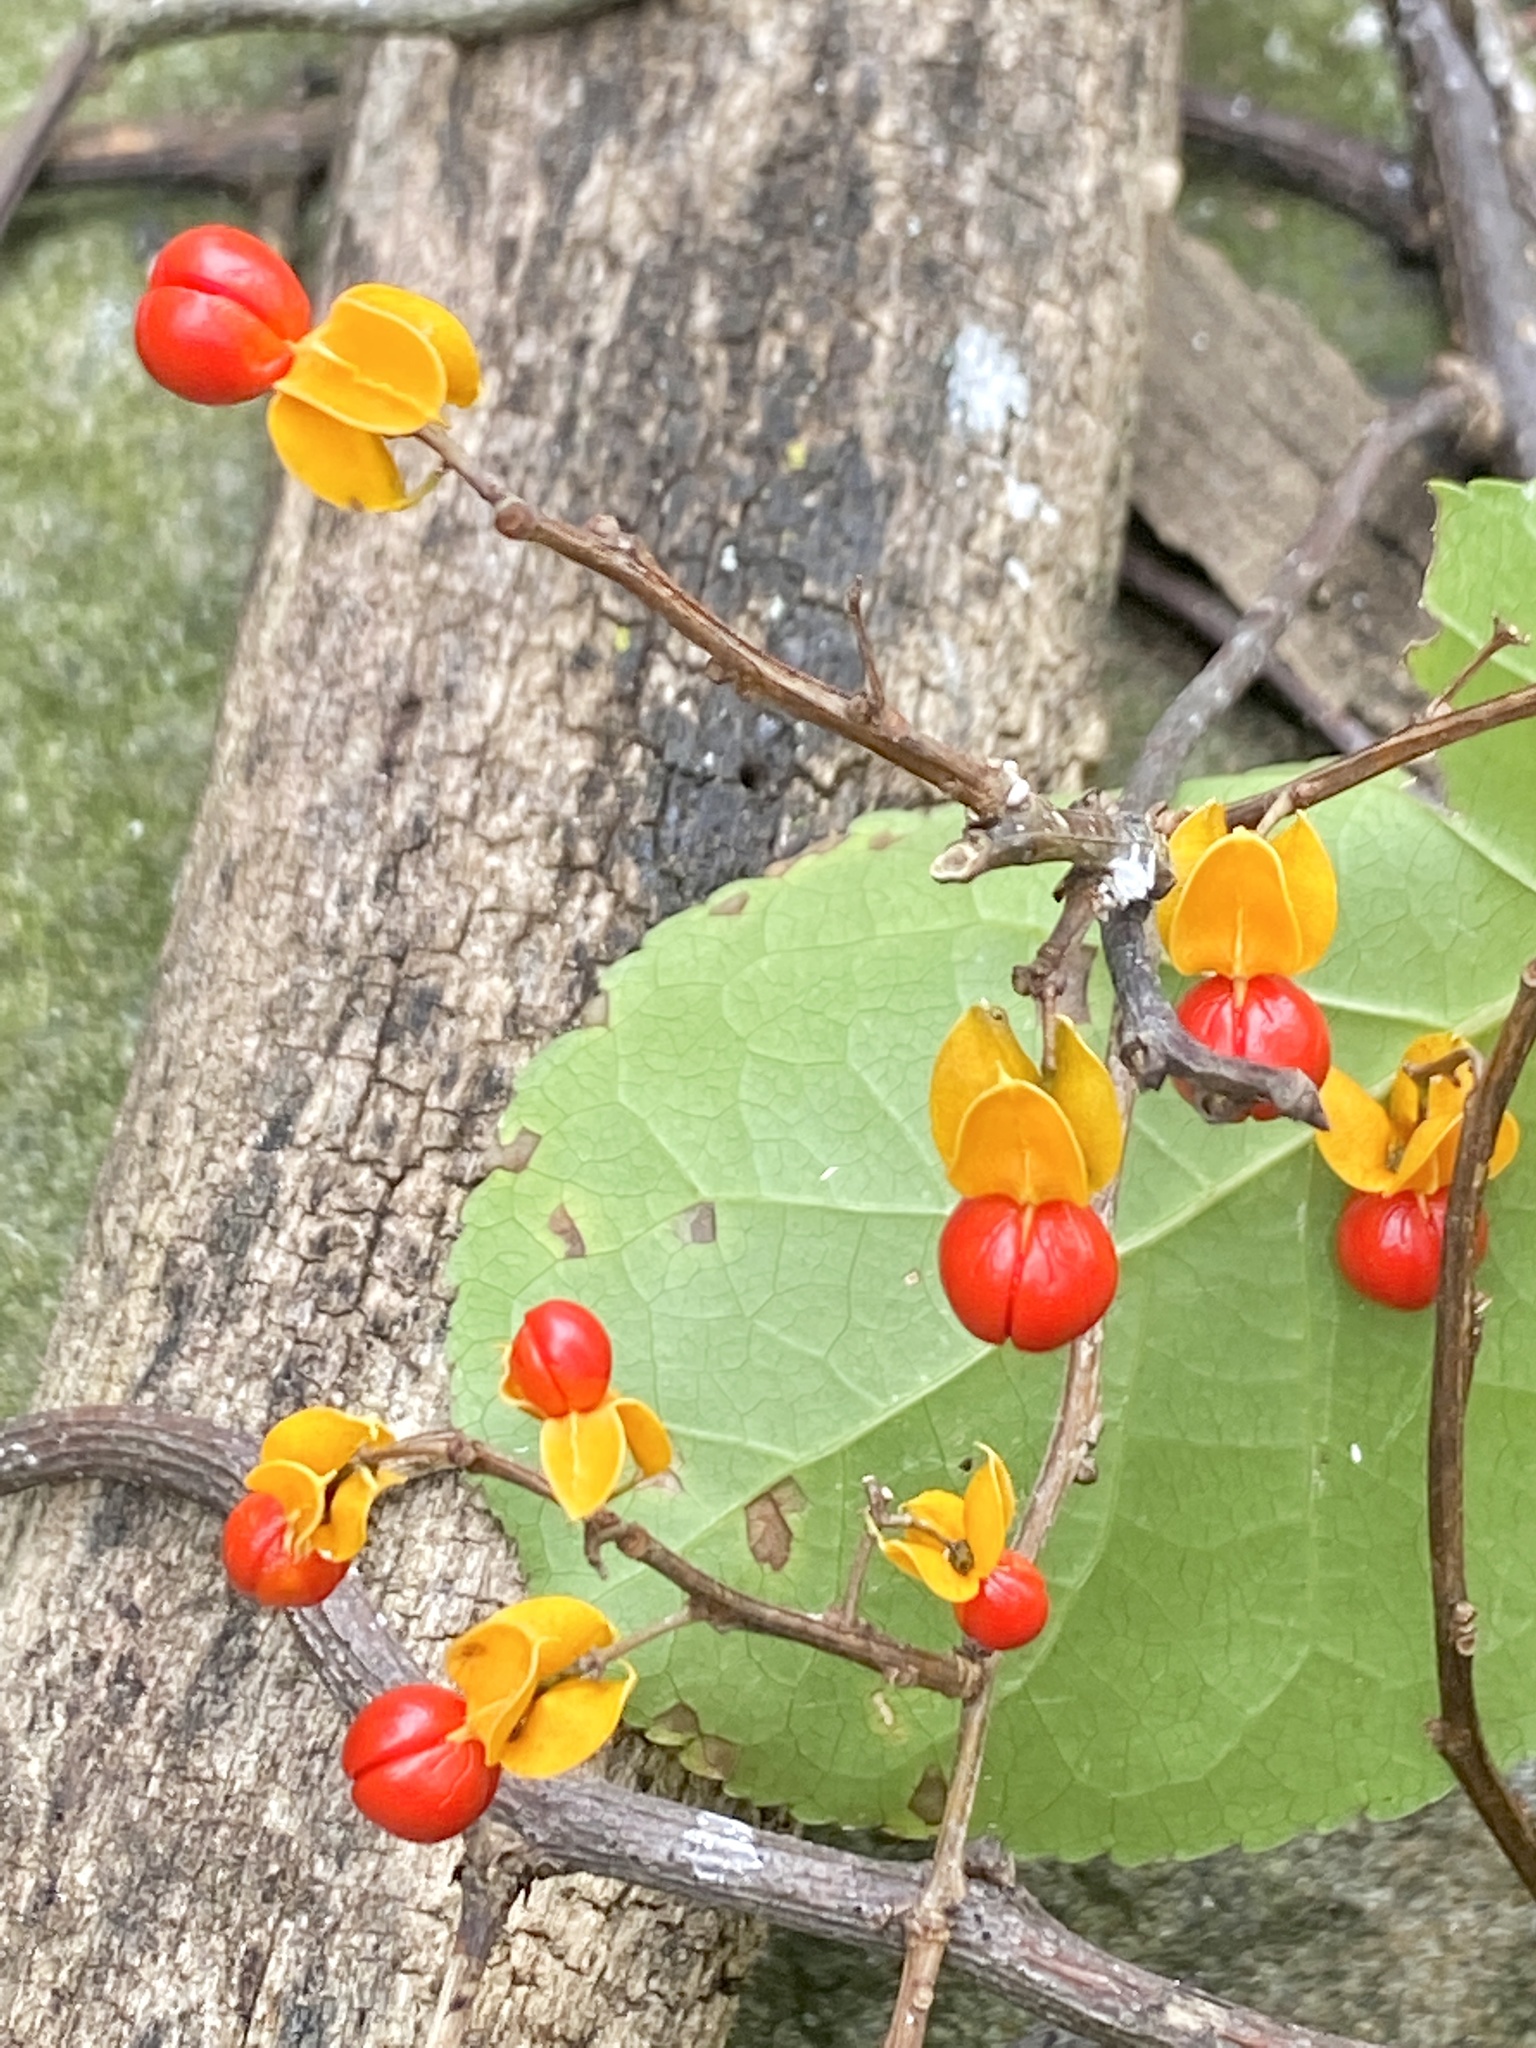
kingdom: Plantae
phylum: Tracheophyta
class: Magnoliopsida
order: Celastrales
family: Celastraceae
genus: Celastrus
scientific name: Celastrus orbiculatus
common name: Oriental bittersweet
